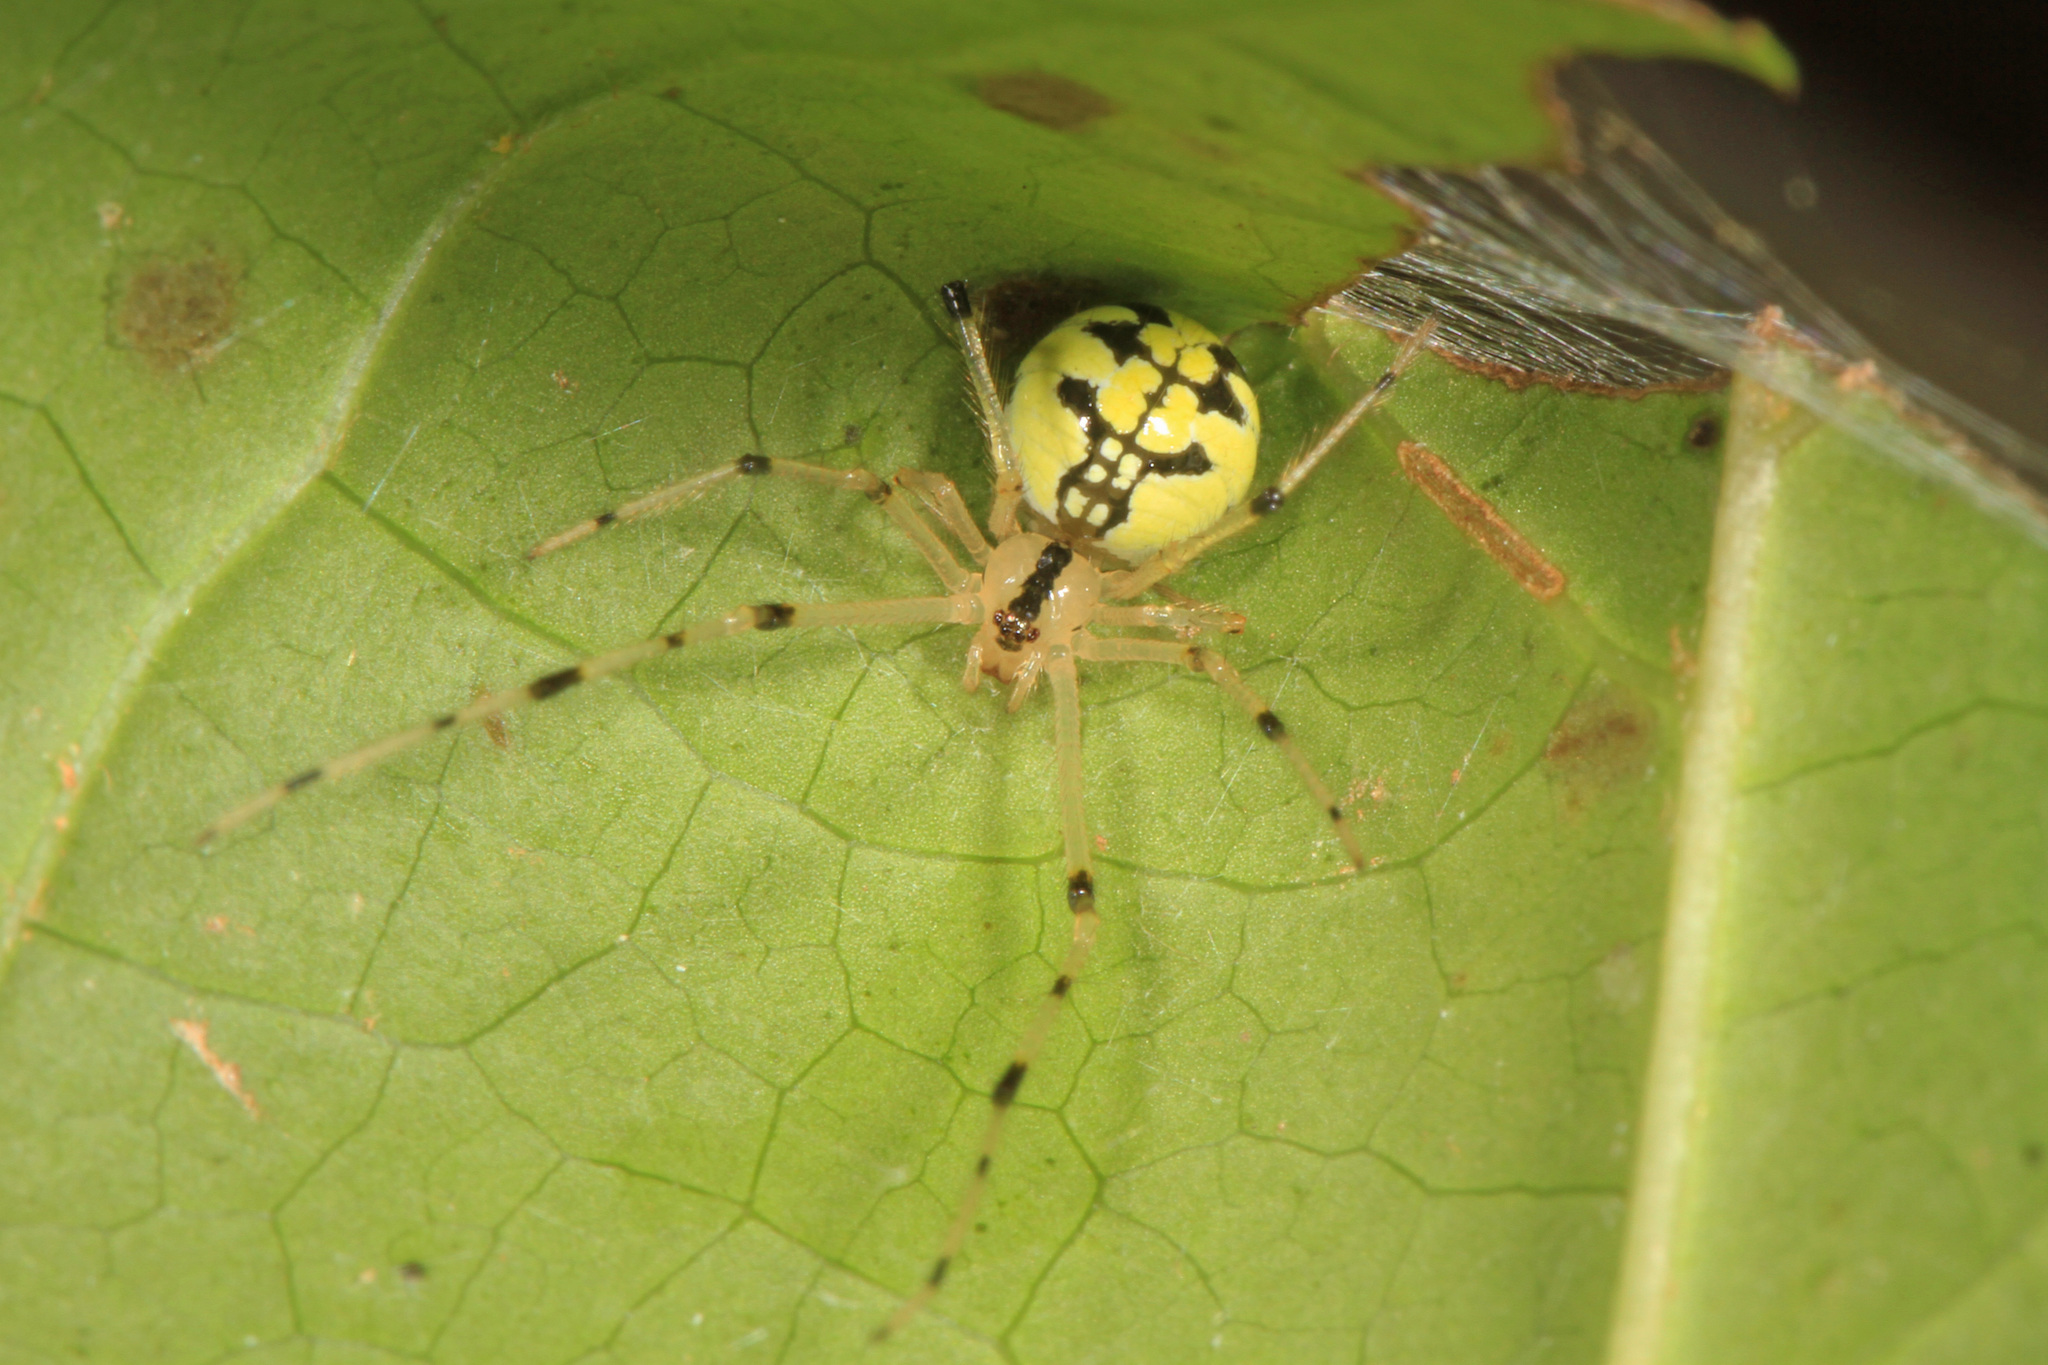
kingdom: Animalia
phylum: Arthropoda
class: Arachnida
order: Araneae
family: Theridiidae
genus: Phylloneta
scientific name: Phylloneta pictipes
